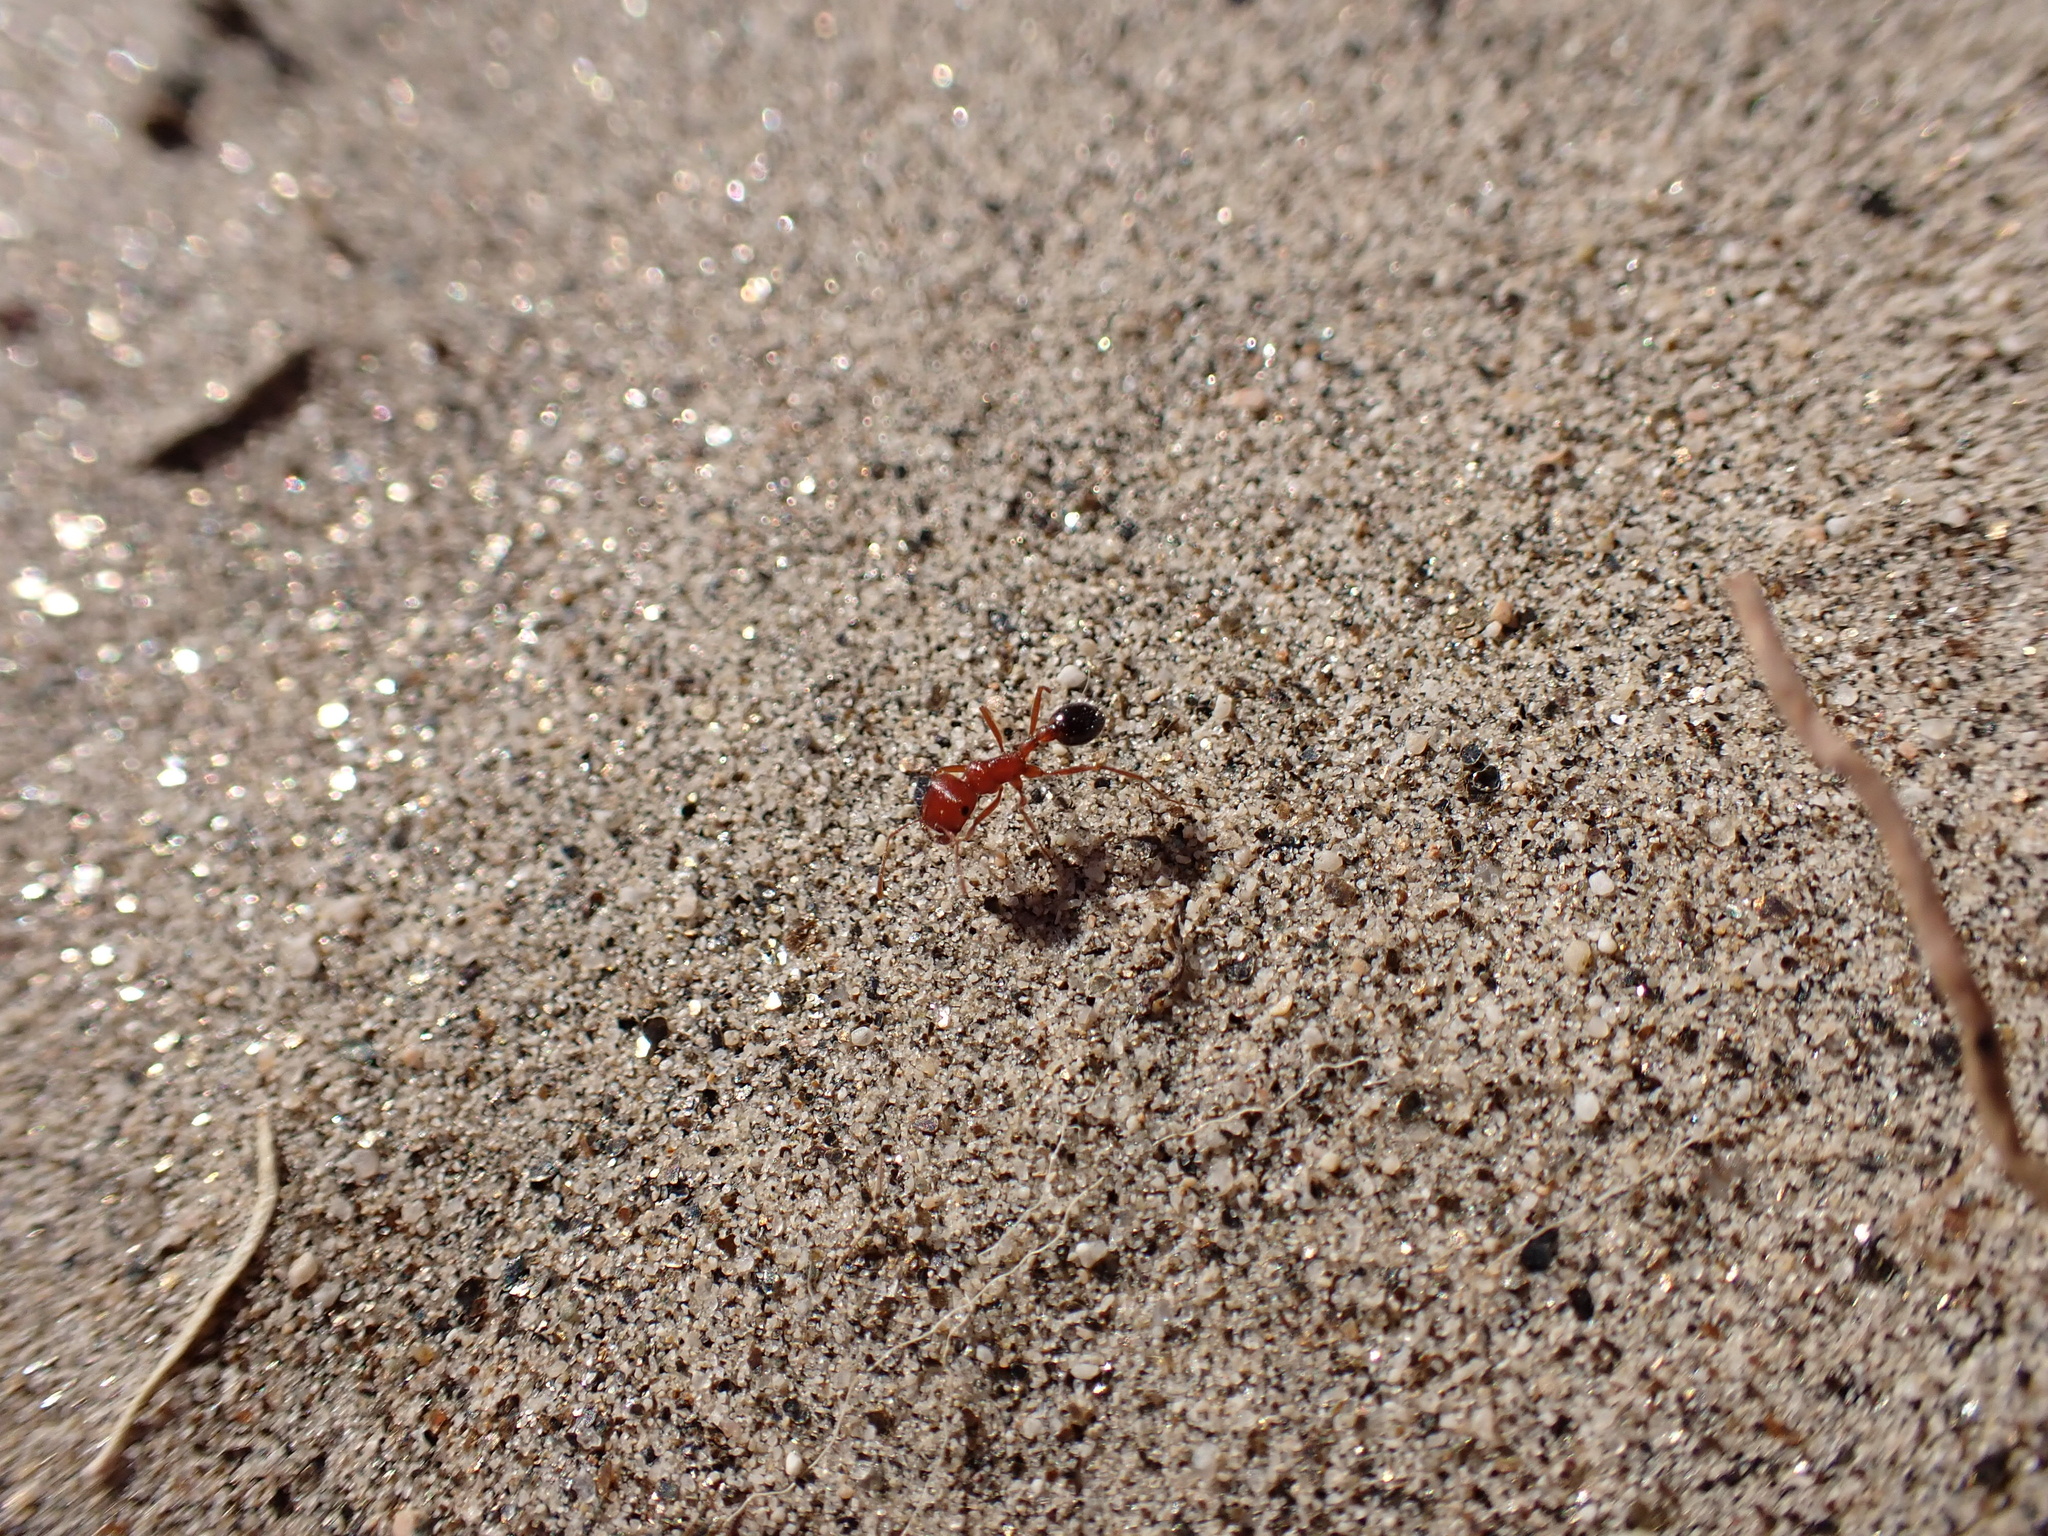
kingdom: Animalia
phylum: Arthropoda
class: Insecta
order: Hymenoptera
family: Formicidae
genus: Pogonomyrmex
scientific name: Pogonomyrmex californicus
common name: California harvester ant
